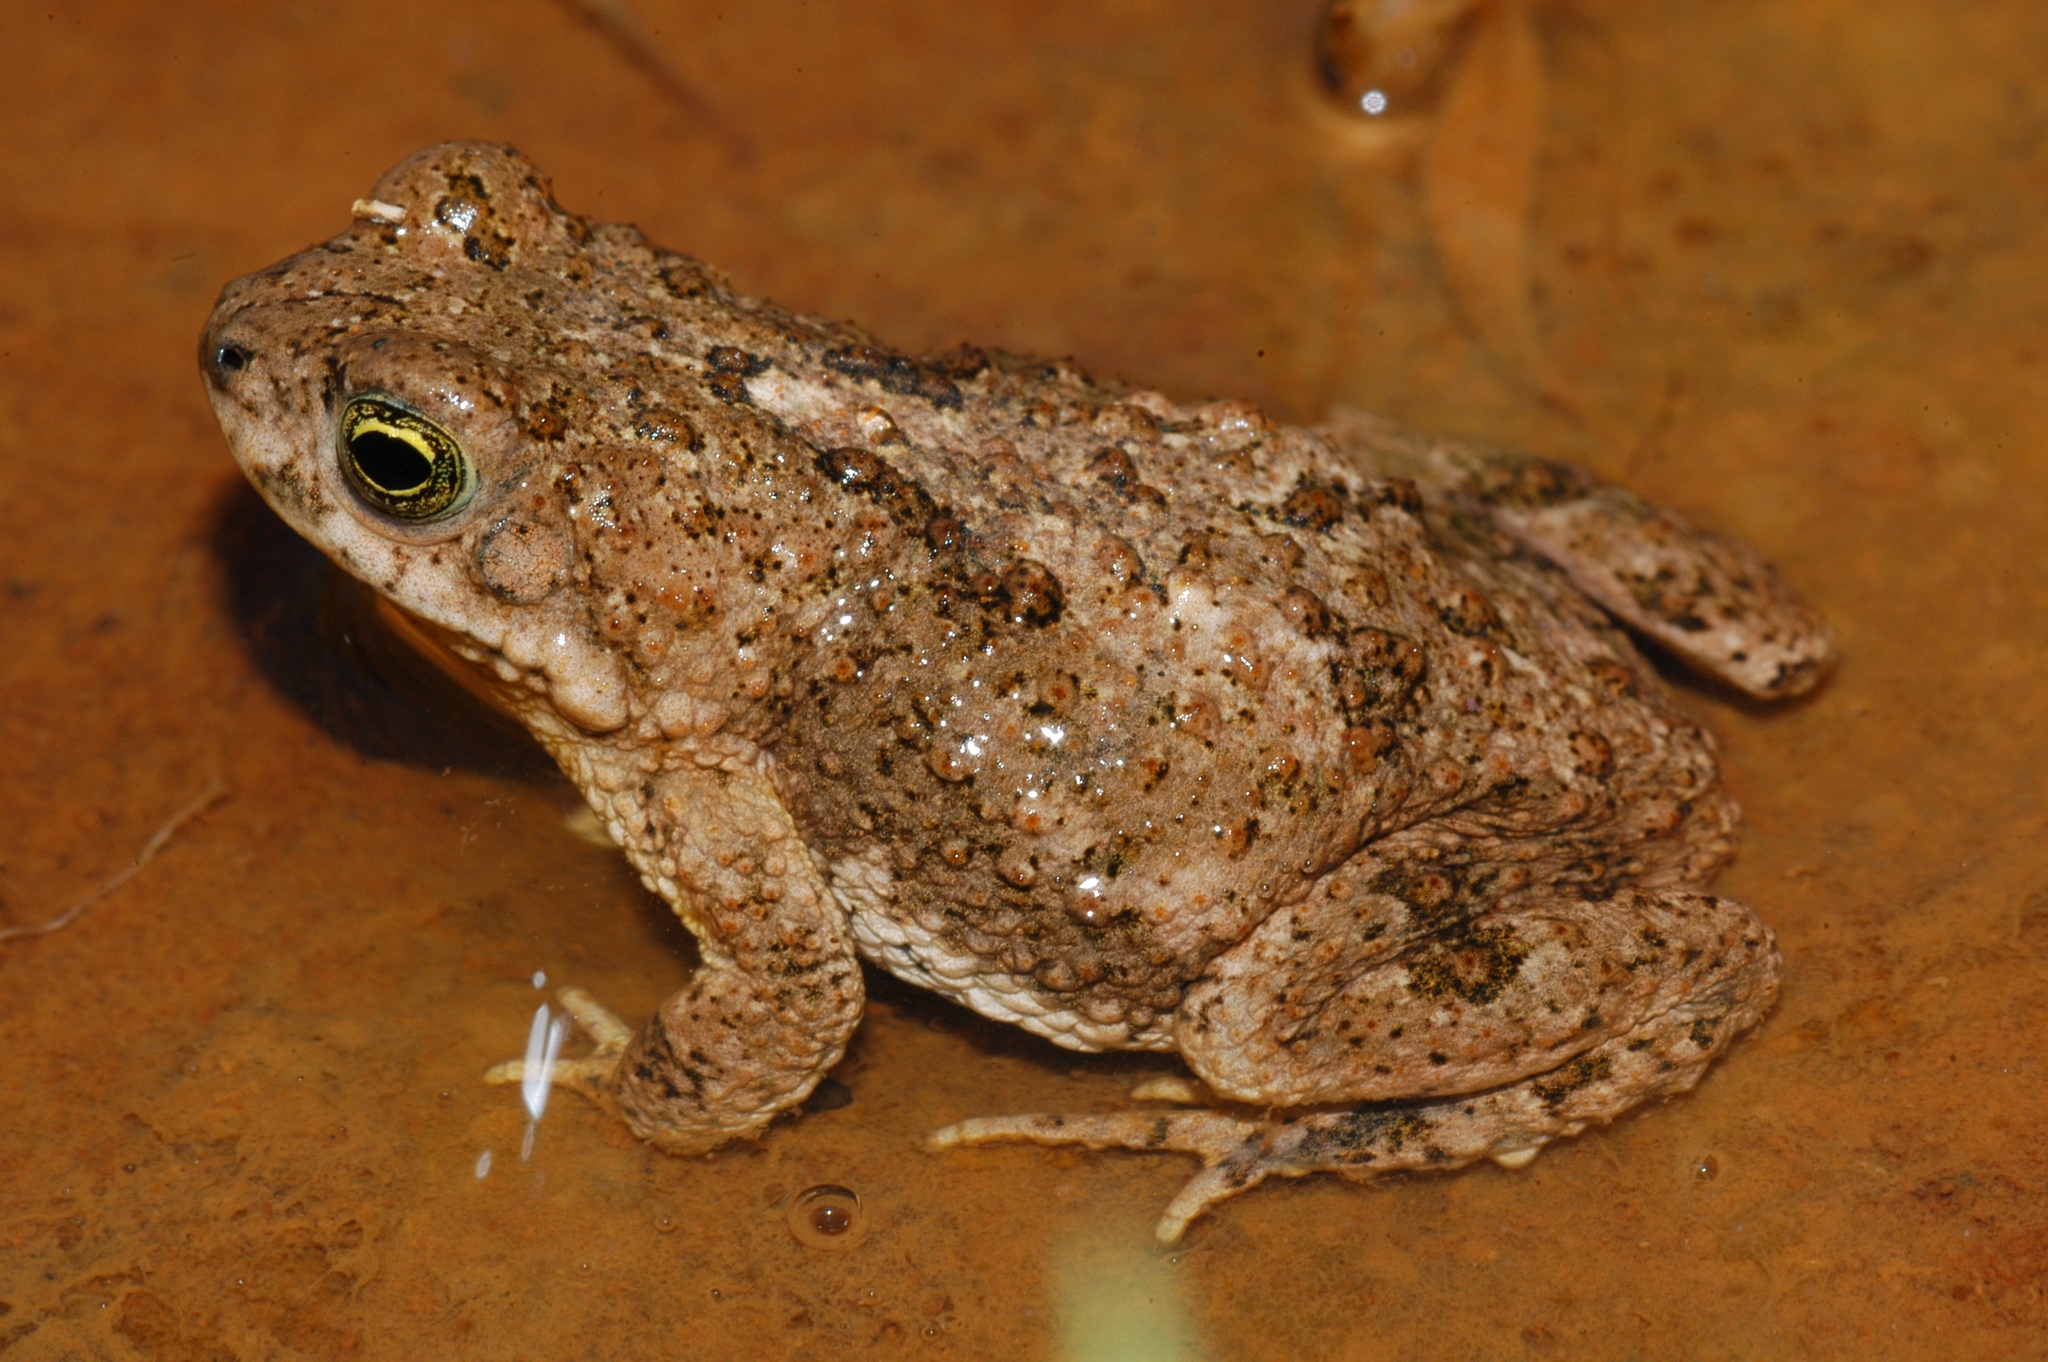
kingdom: Animalia
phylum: Chordata
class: Amphibia
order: Anura
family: Bufonidae
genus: Poyntonophrynus
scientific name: Poyntonophrynus vertebralis
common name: Southern pygmy toad
